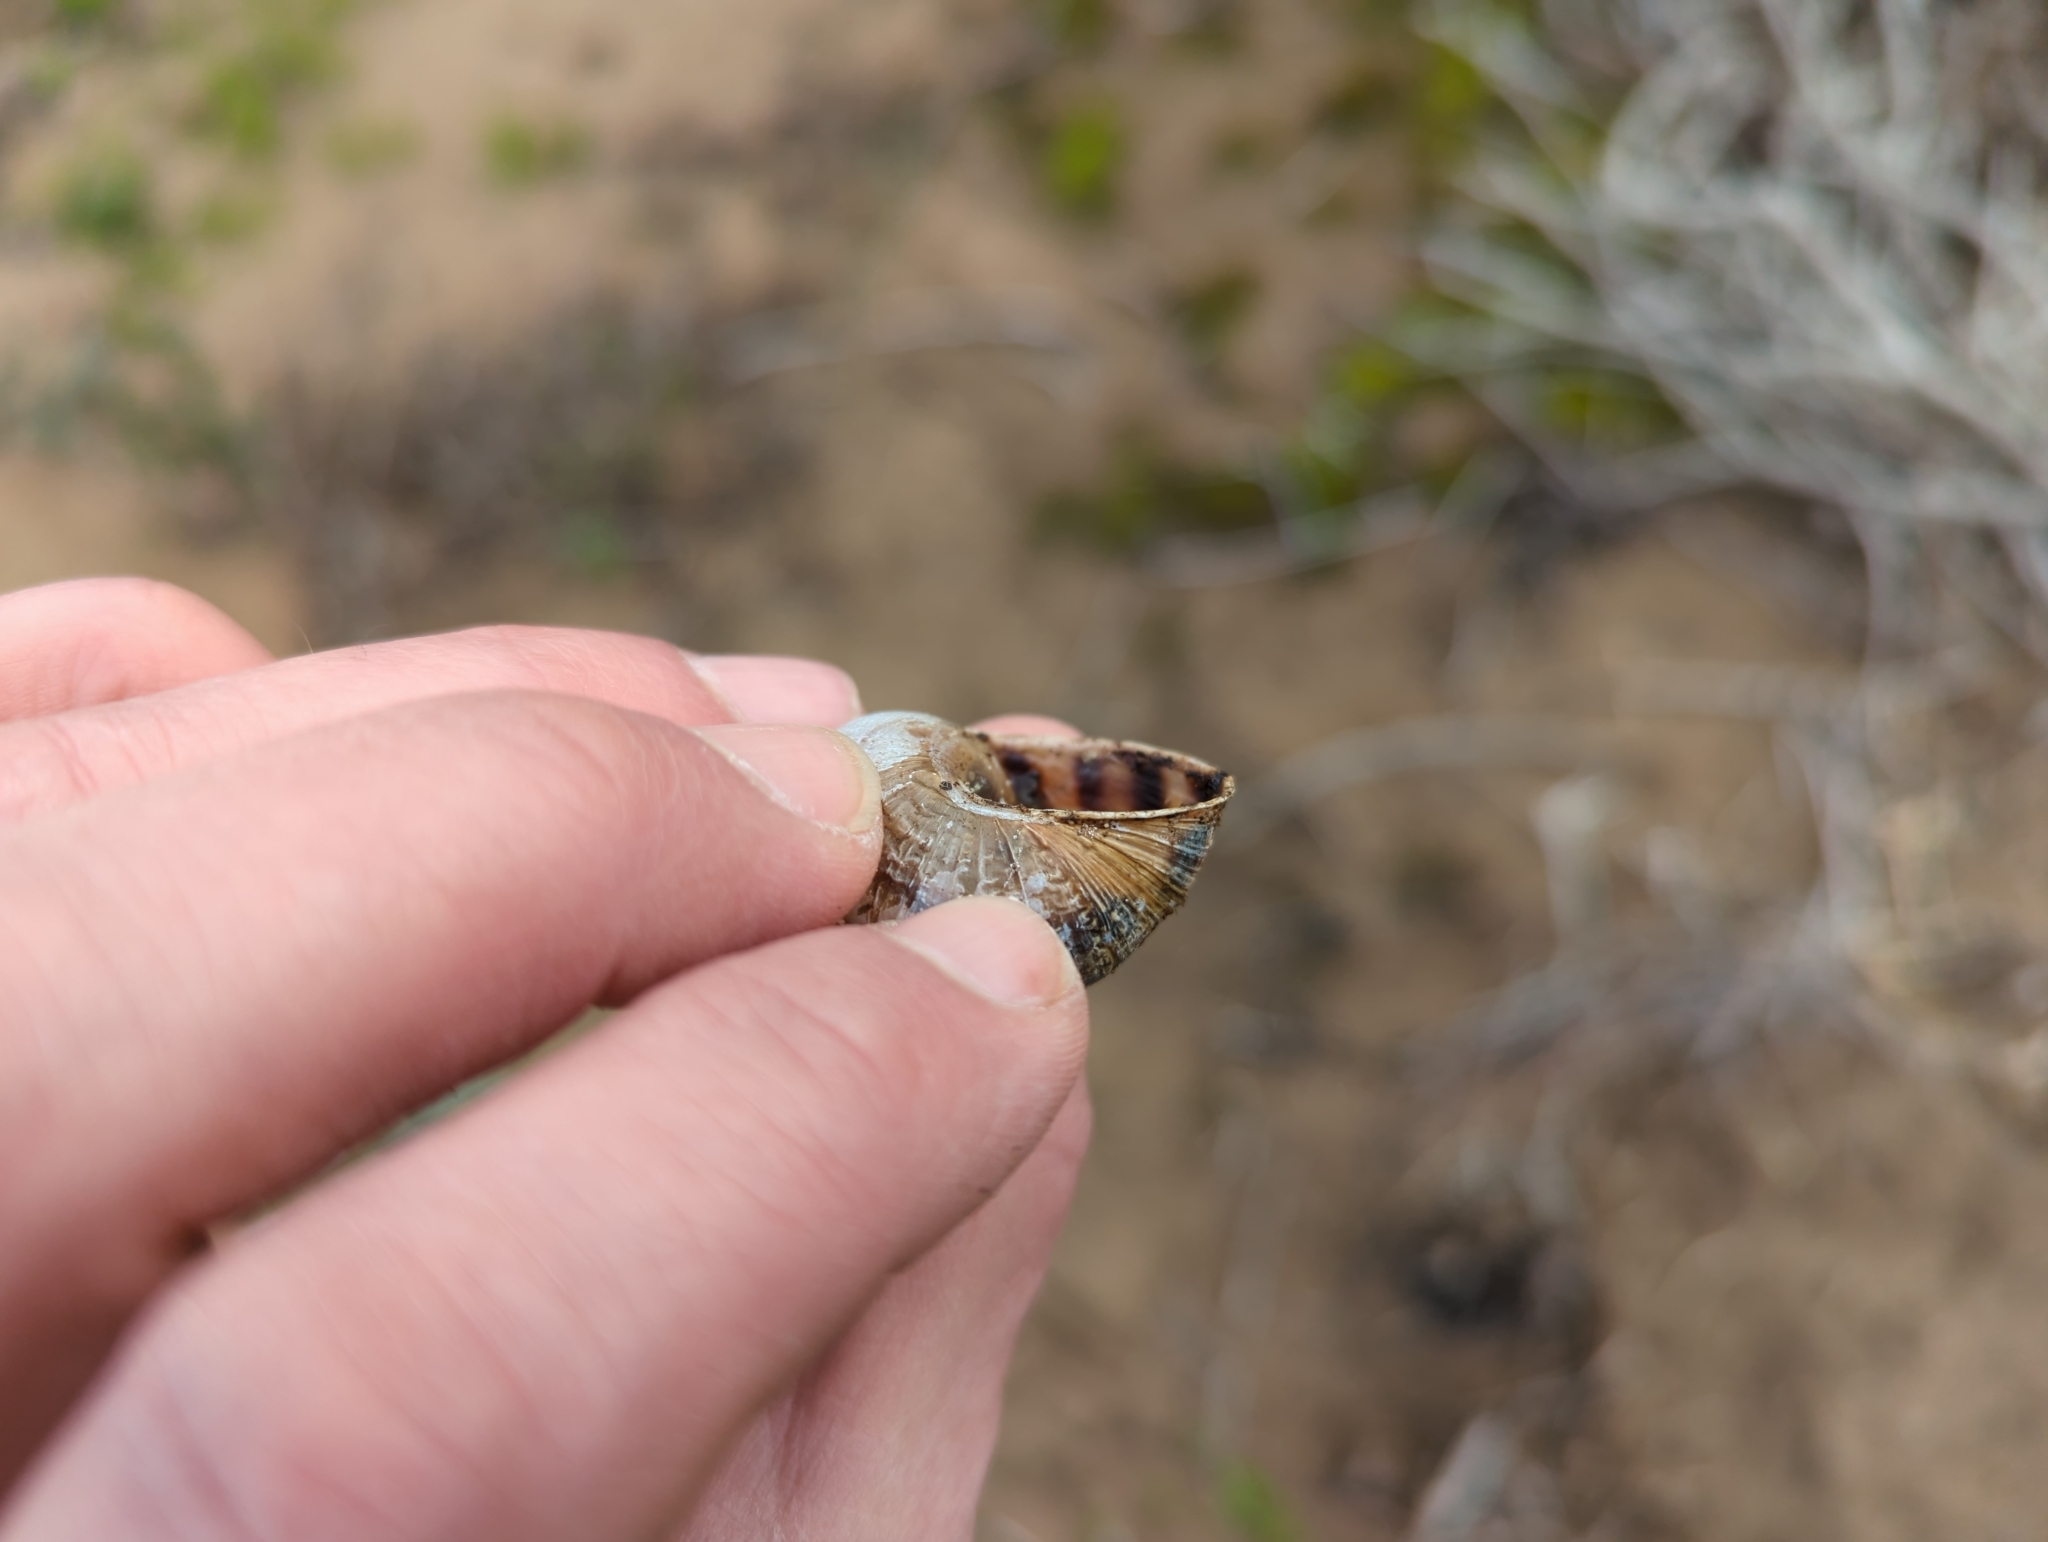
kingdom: Animalia
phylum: Mollusca
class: Gastropoda
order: Stylommatophora
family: Helicidae
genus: Cornu
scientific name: Cornu aspersum
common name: Brown garden snail
